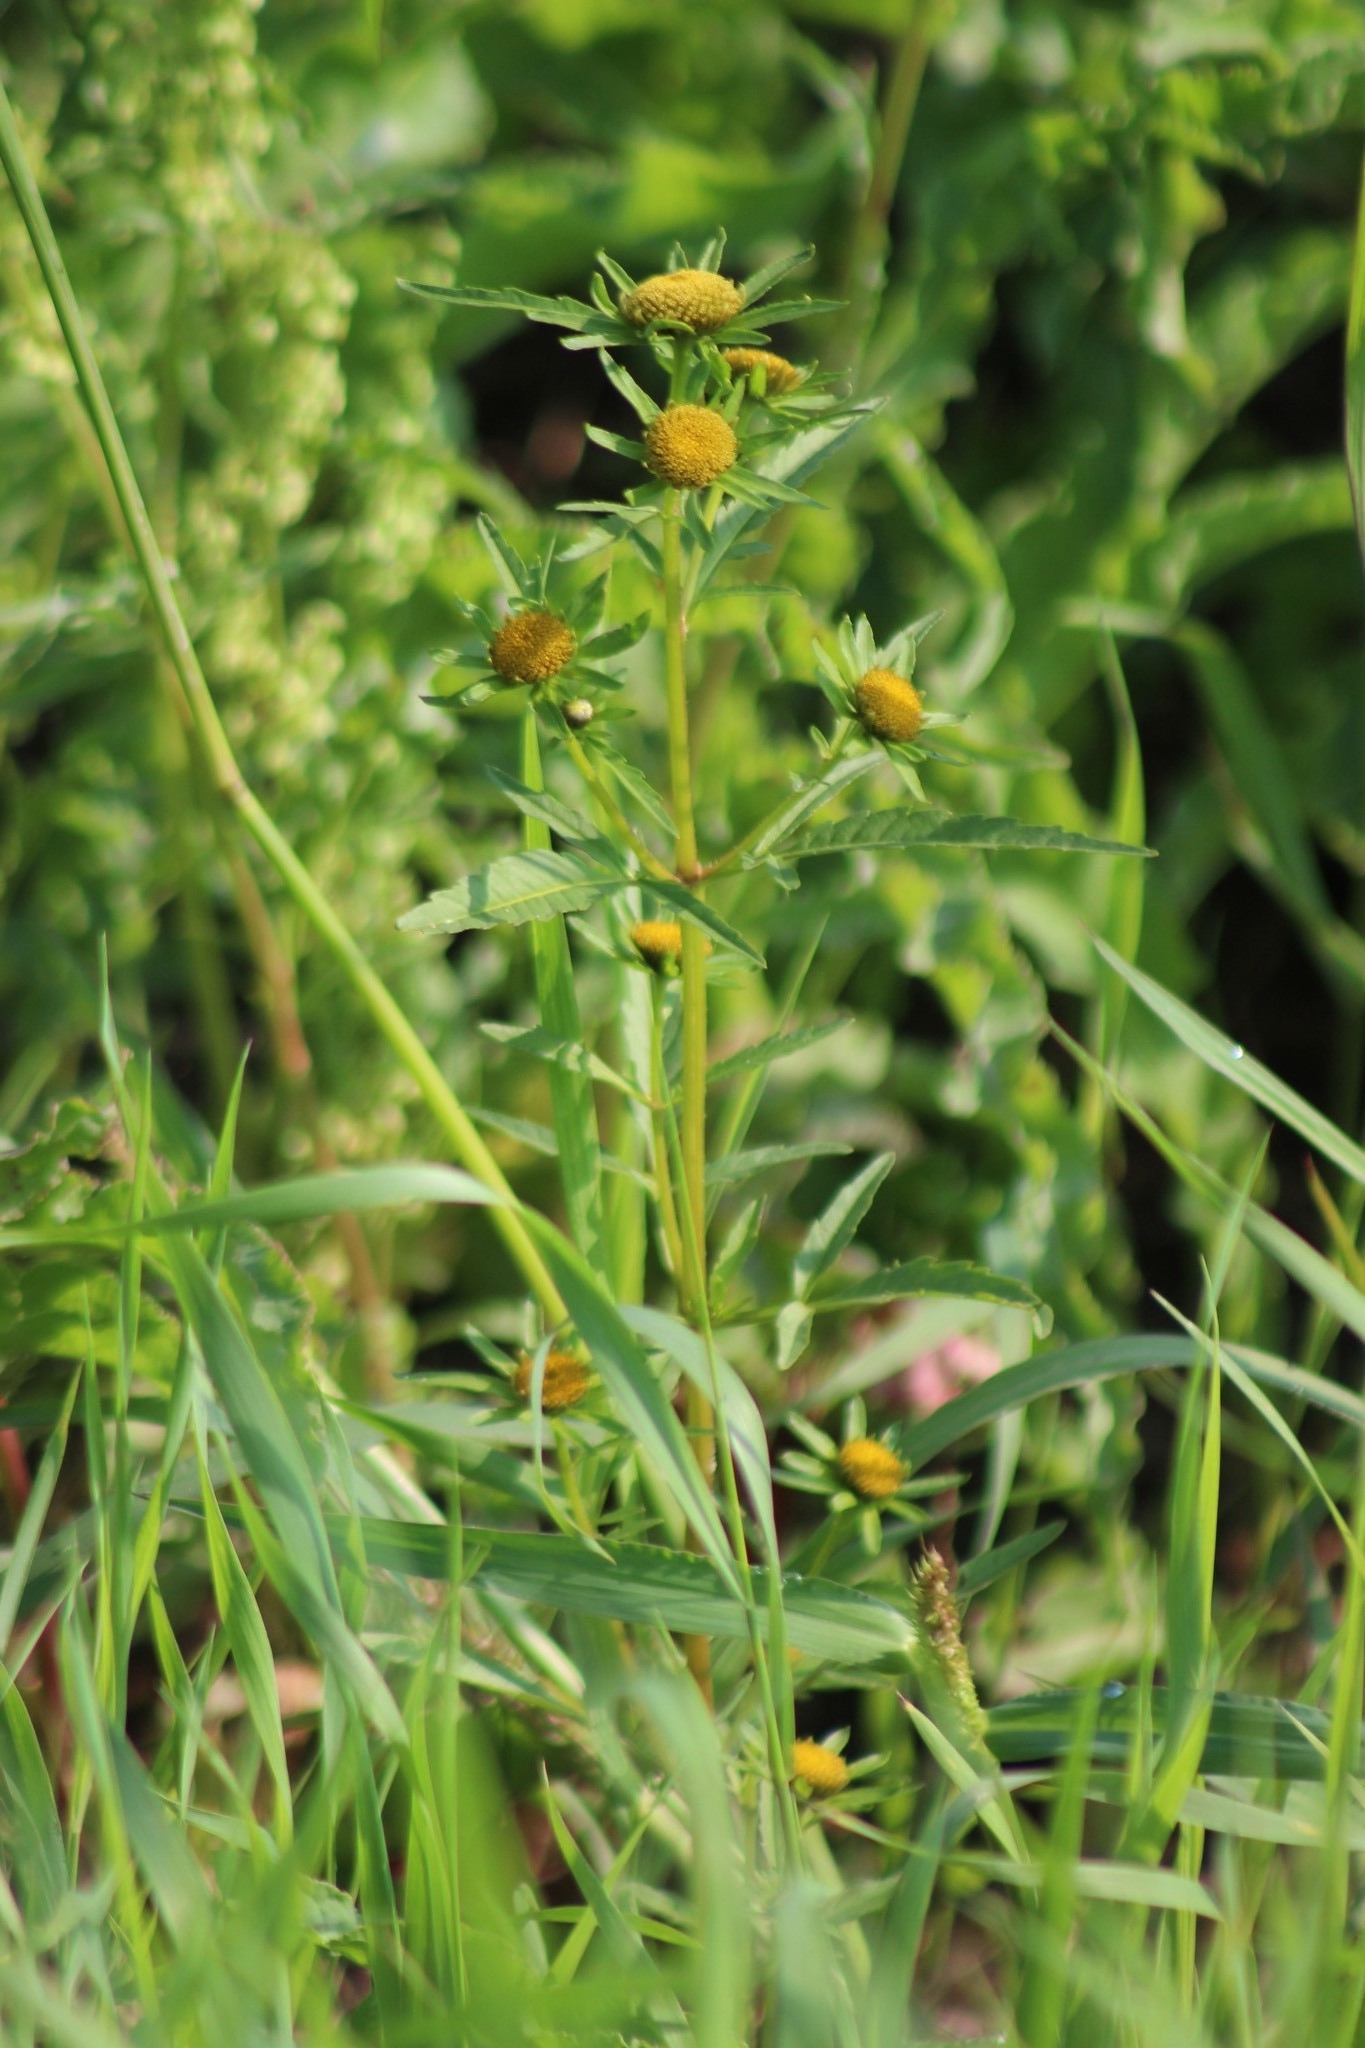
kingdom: Plantae
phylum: Tracheophyta
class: Magnoliopsida
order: Asterales
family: Asteraceae
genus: Bidens
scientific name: Bidens radiata
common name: Radiating bur-marigold
